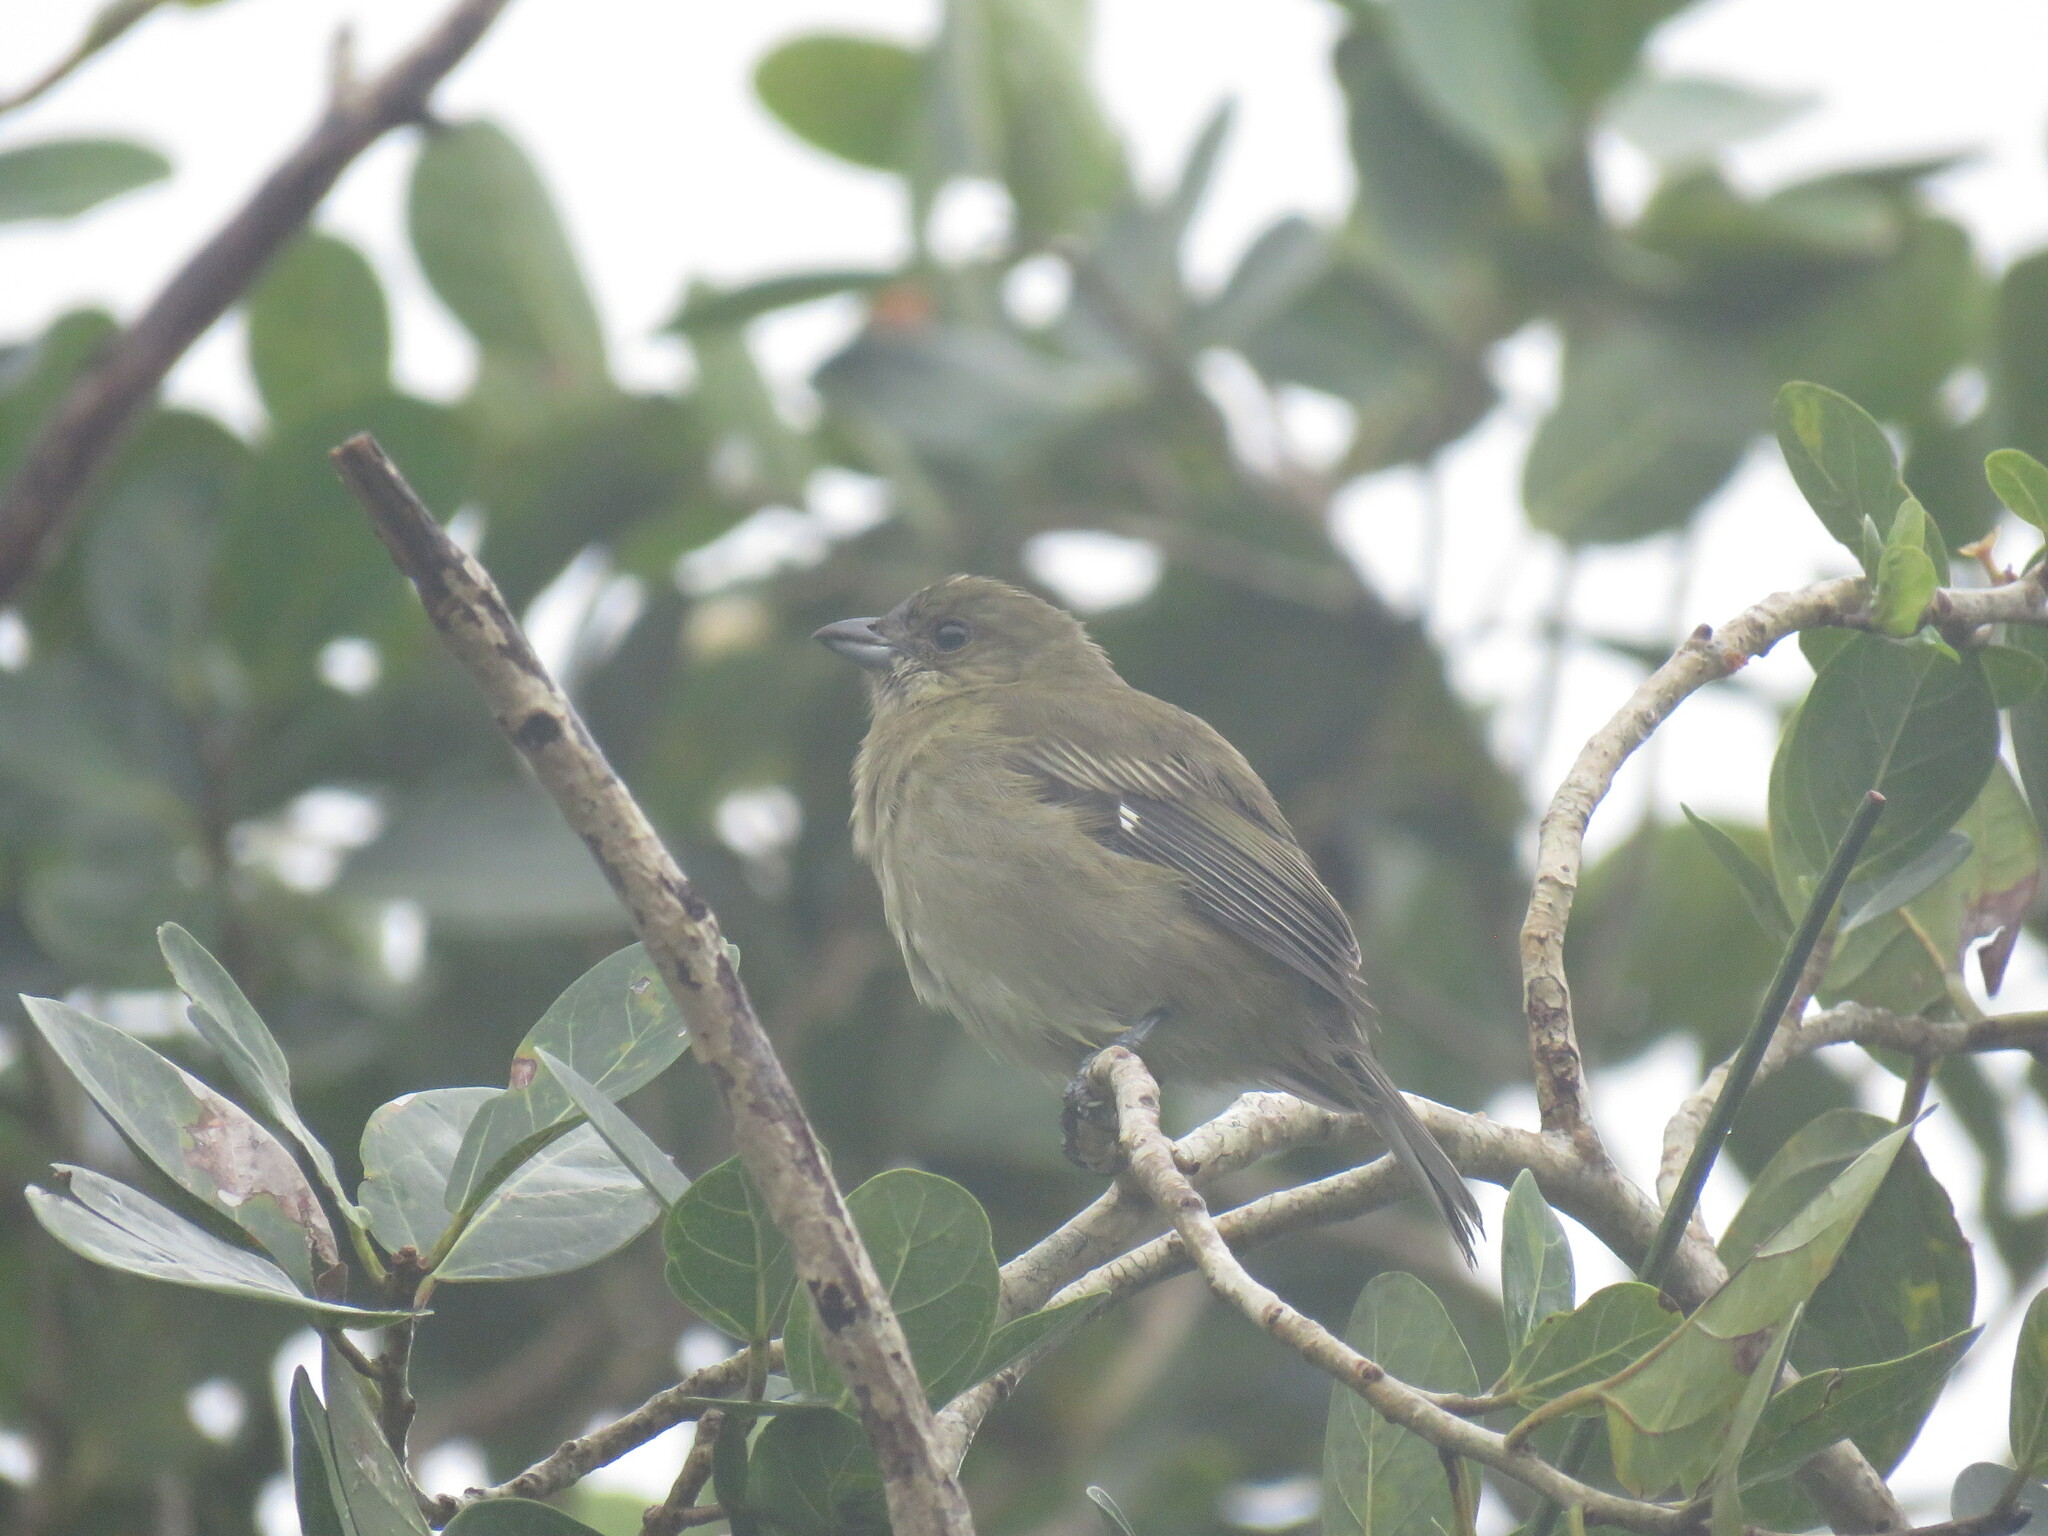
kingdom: Animalia
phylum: Chordata
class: Aves
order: Passeriformes
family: Spindalidae
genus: Spindalis
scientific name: Spindalis zena
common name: Western spindalis
